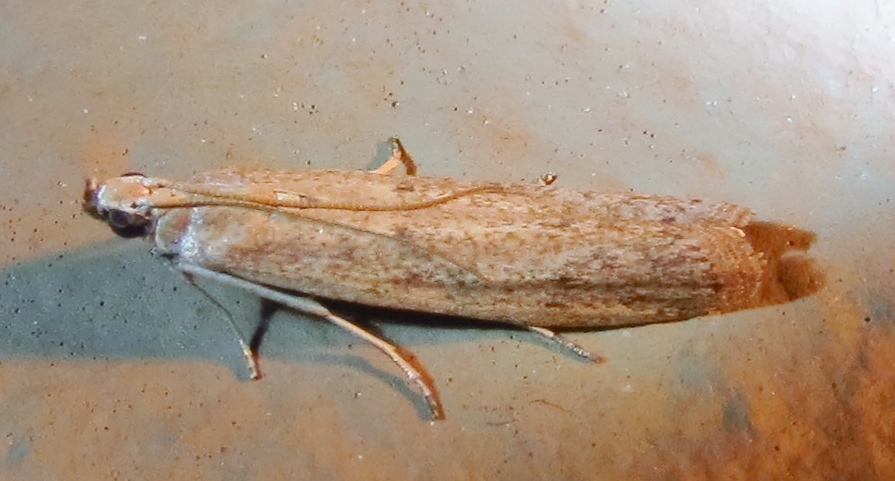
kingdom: Animalia
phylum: Arthropoda
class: Insecta
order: Lepidoptera
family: Pyralidae
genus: Homoeosoma
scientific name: Homoeosoma electella
